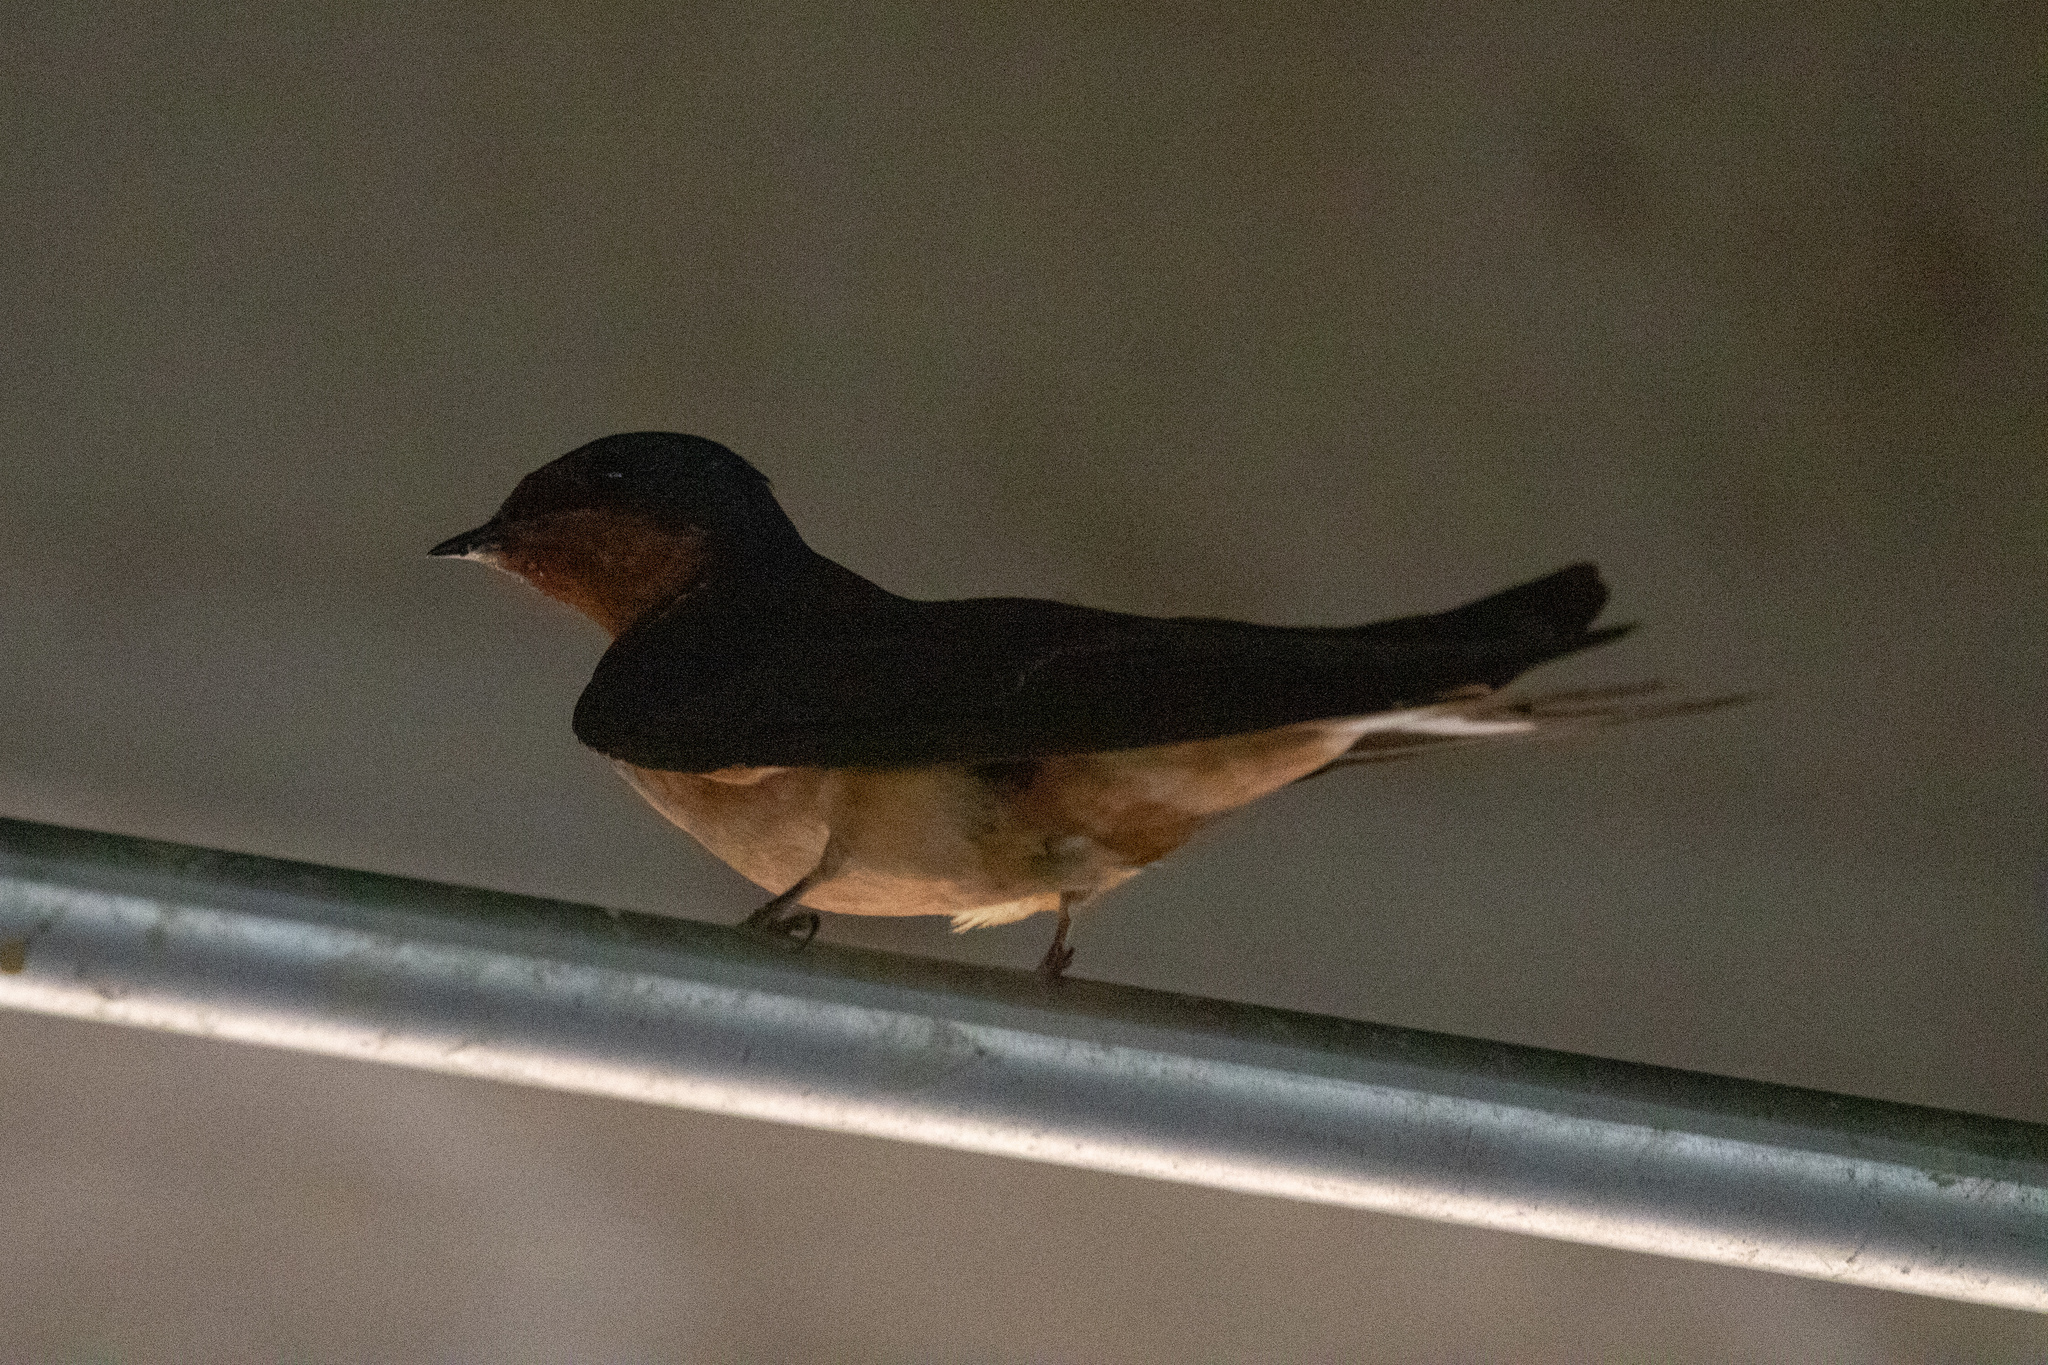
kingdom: Animalia
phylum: Chordata
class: Aves
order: Passeriformes
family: Hirundinidae
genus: Hirundo
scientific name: Hirundo rustica
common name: Barn swallow
